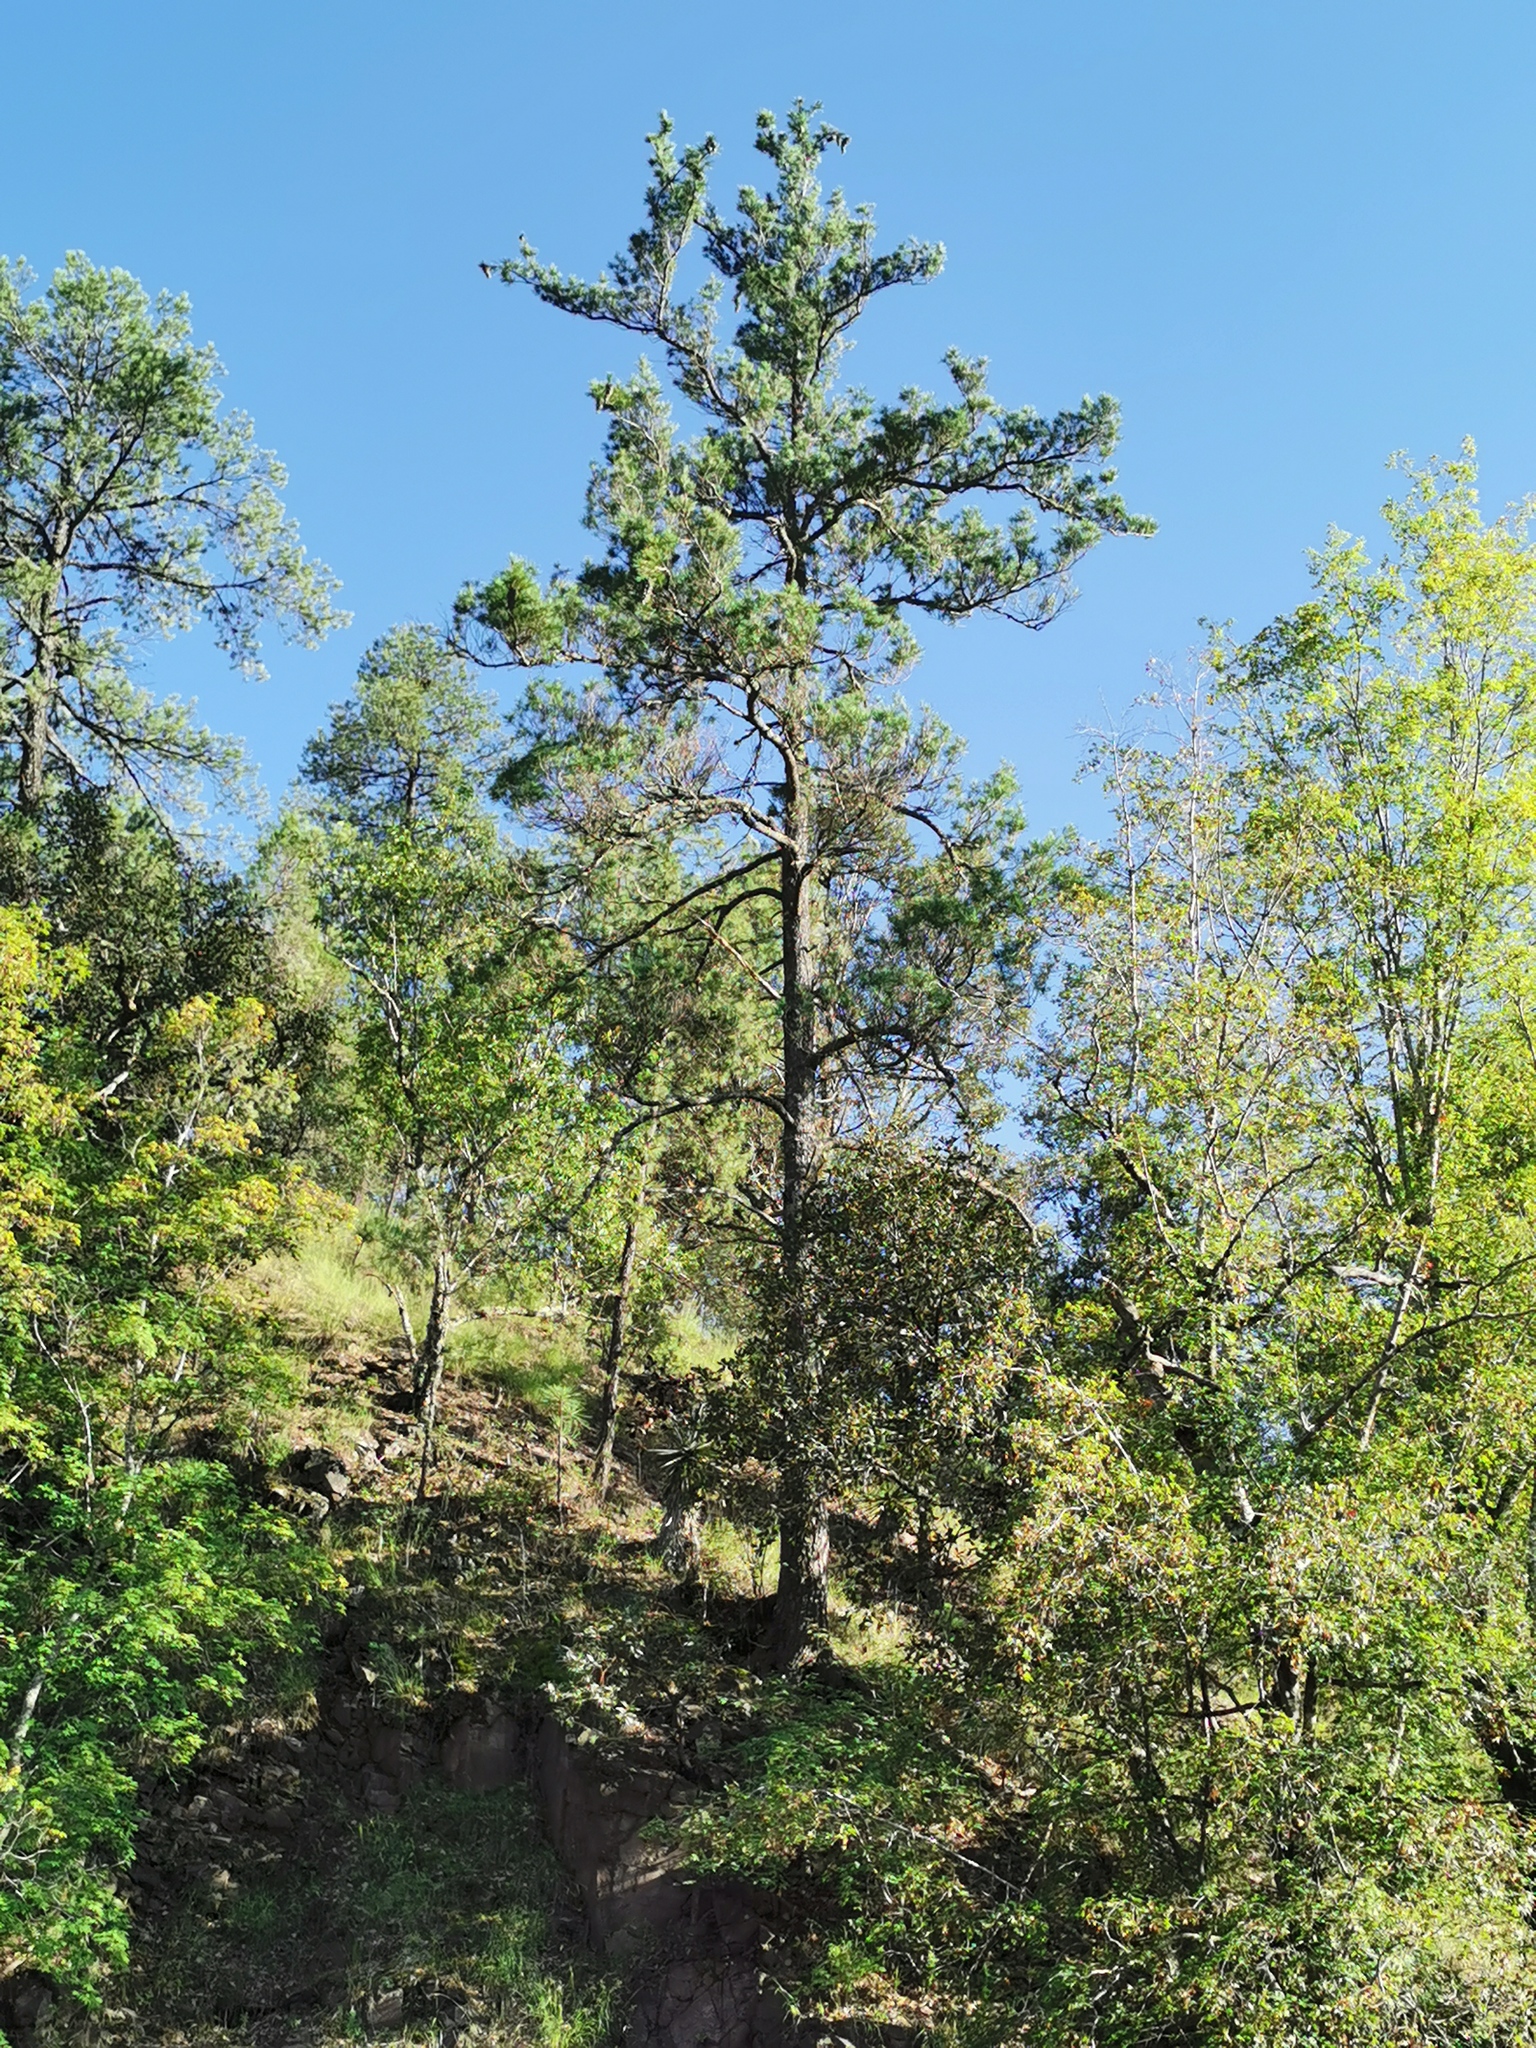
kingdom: Plantae
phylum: Tracheophyta
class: Pinopsida
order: Pinales
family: Pinaceae
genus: Pinus
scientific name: Pinus strobiformis
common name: Southwestern white pine
